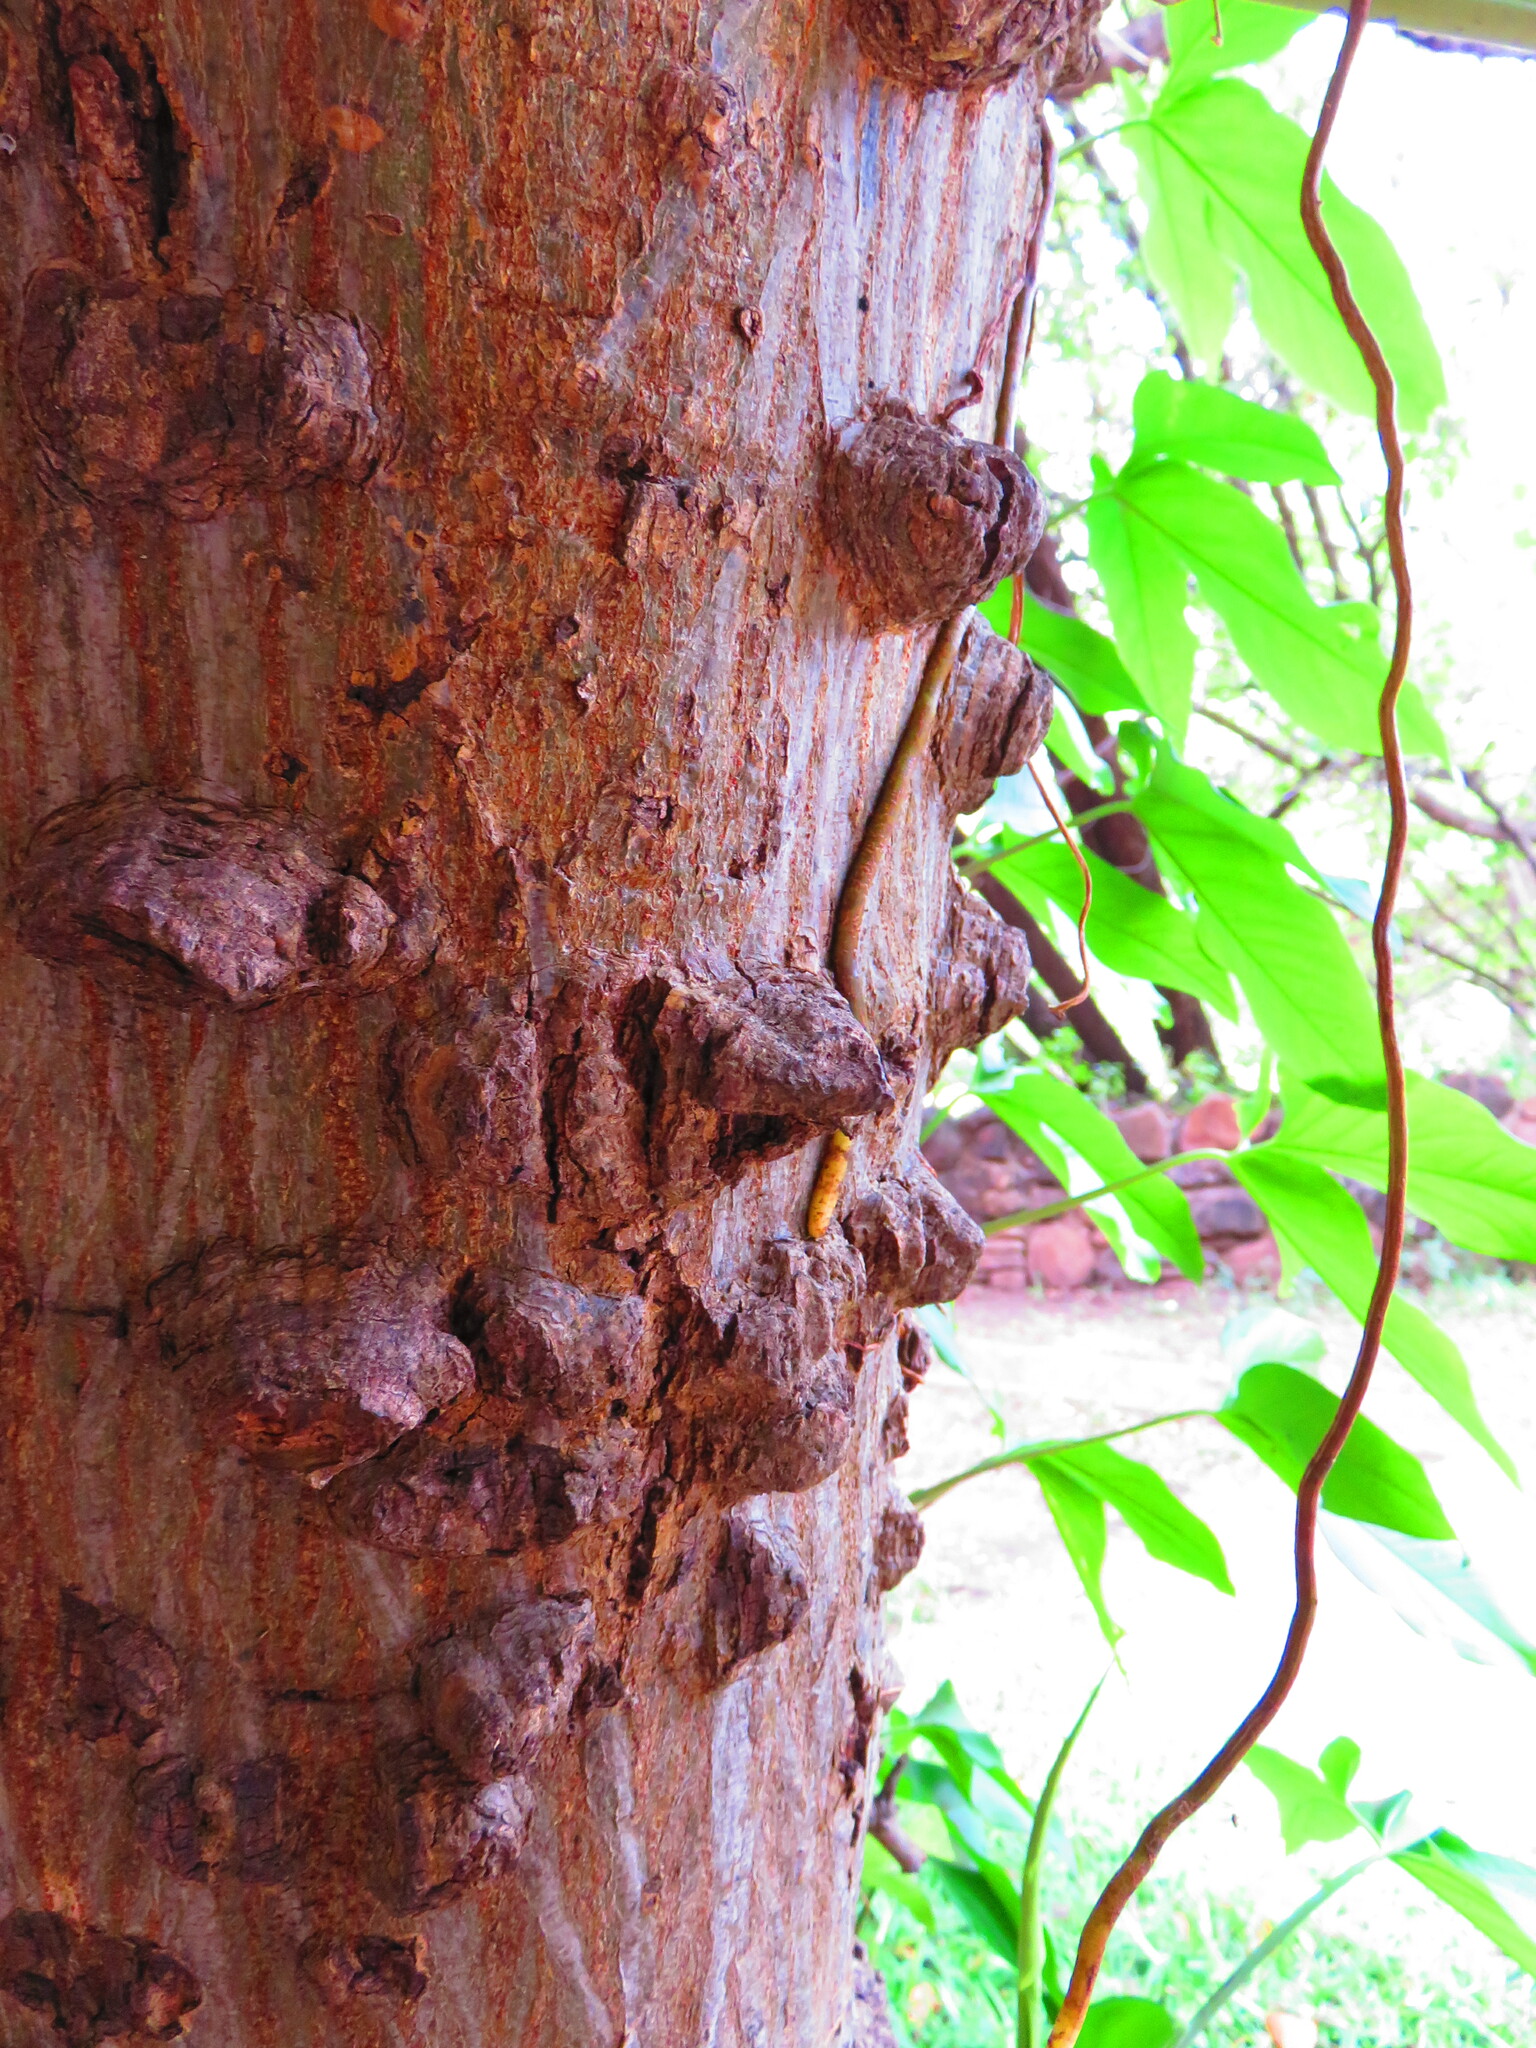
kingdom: Plantae
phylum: Tracheophyta
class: Magnoliopsida
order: Fabales
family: Fabaceae
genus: Senegalia
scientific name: Senegalia nigrescens
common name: Knobthorn
